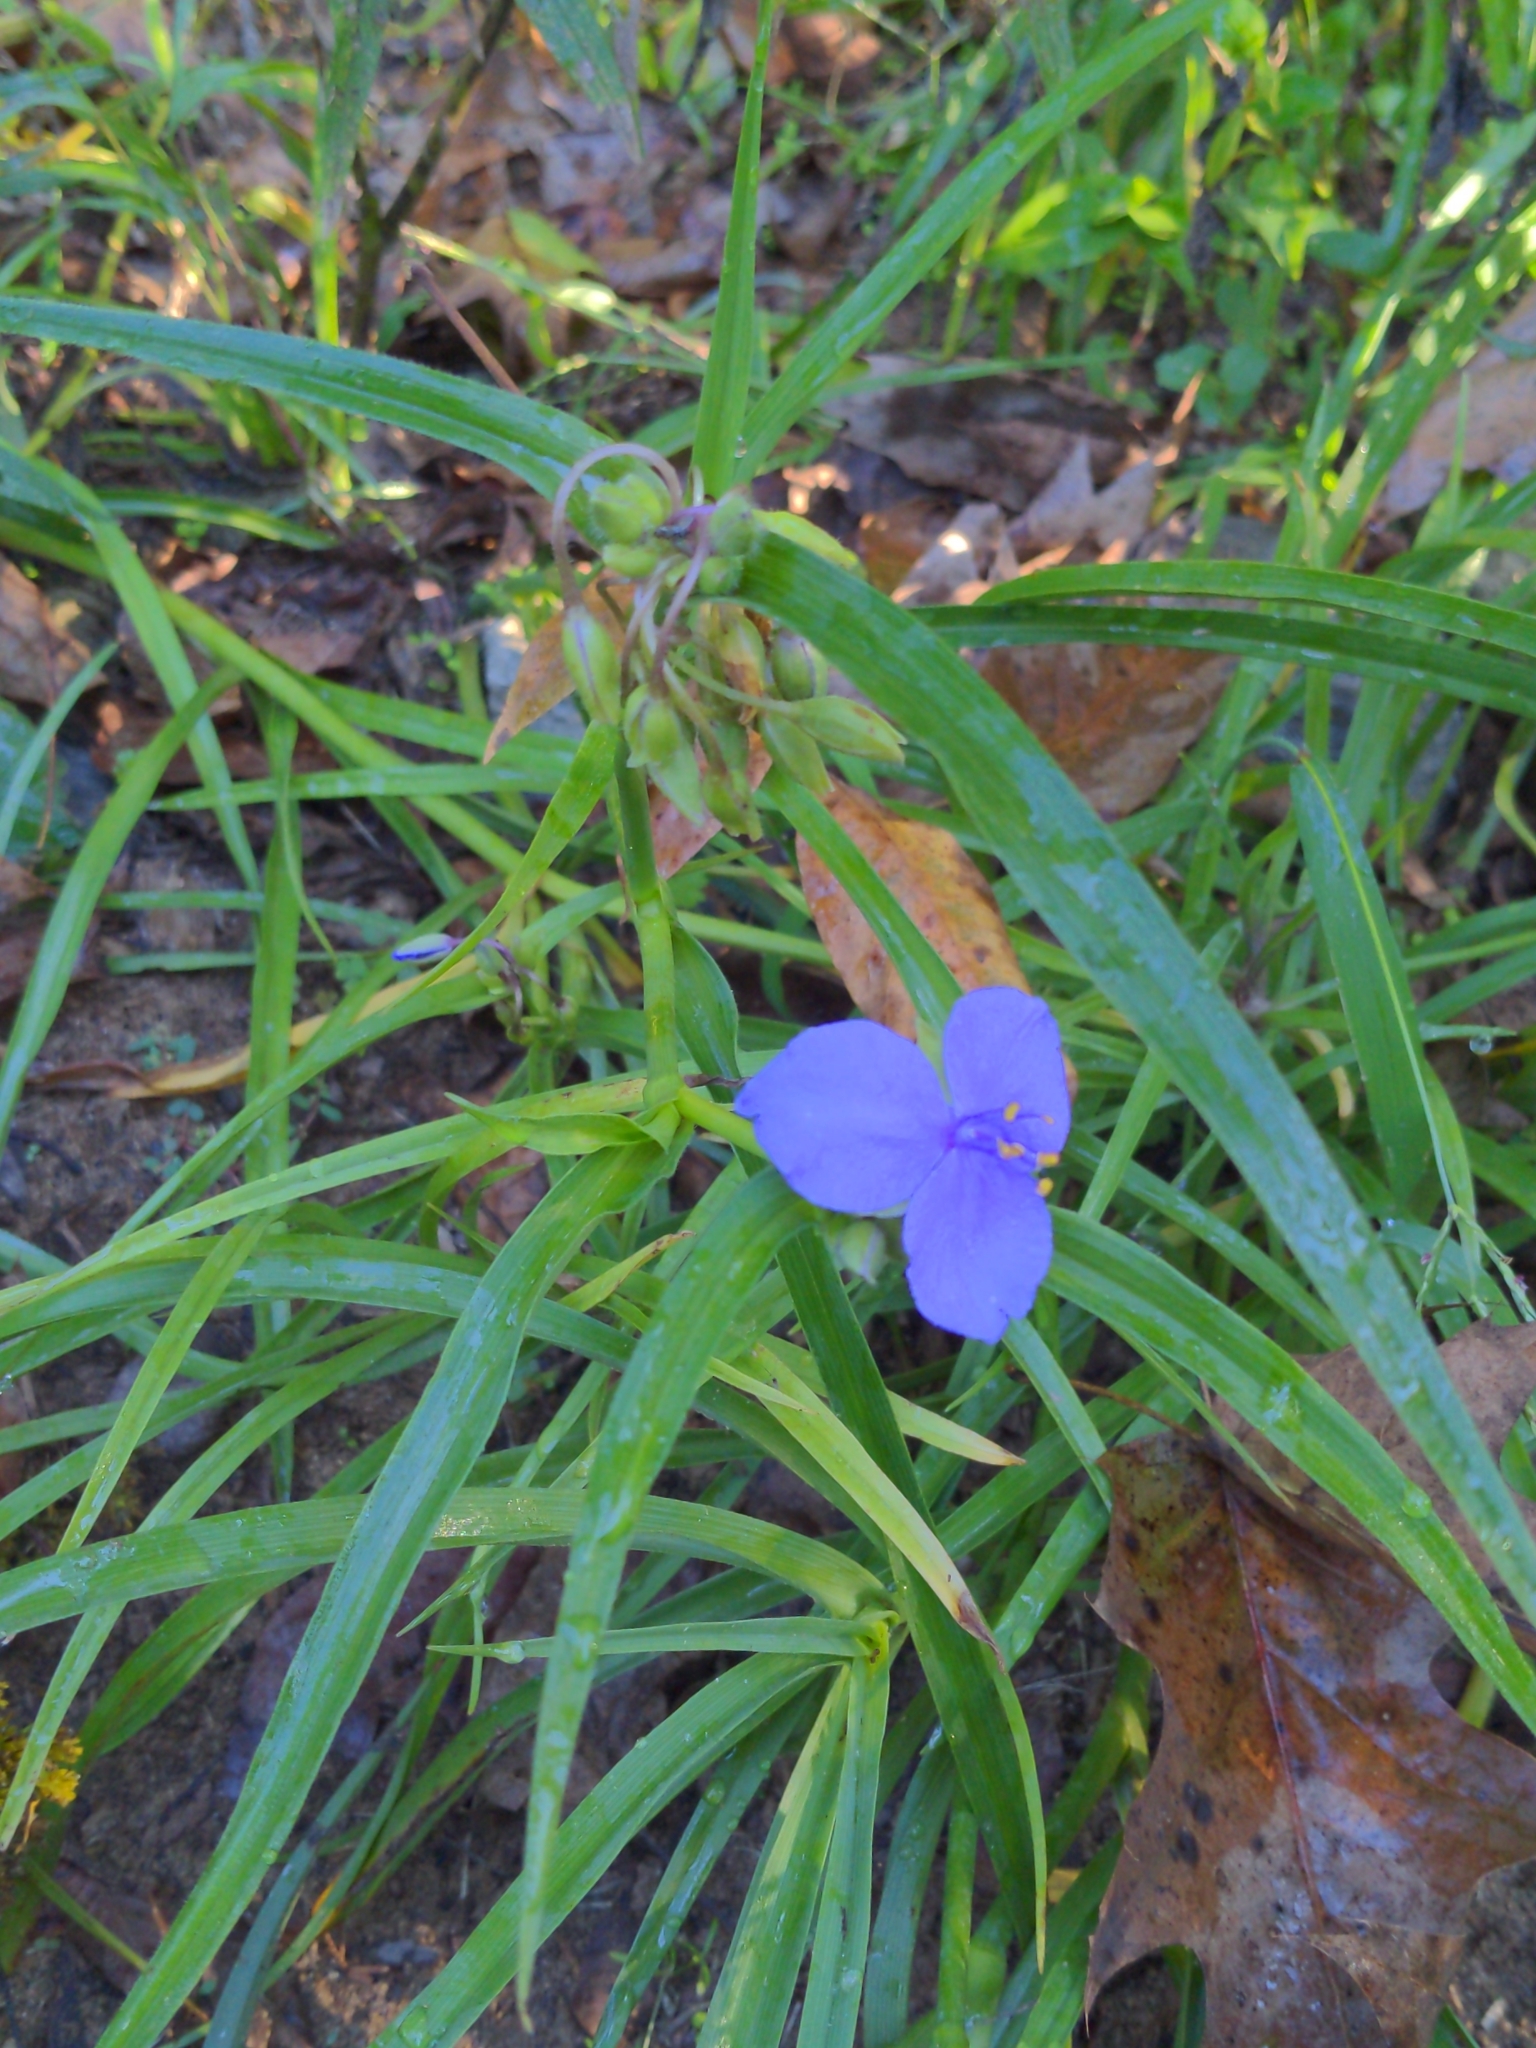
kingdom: Plantae
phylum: Tracheophyta
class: Liliopsida
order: Commelinales
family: Commelinaceae
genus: Tradescantia
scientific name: Tradescantia virginiana
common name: Spiderwort
